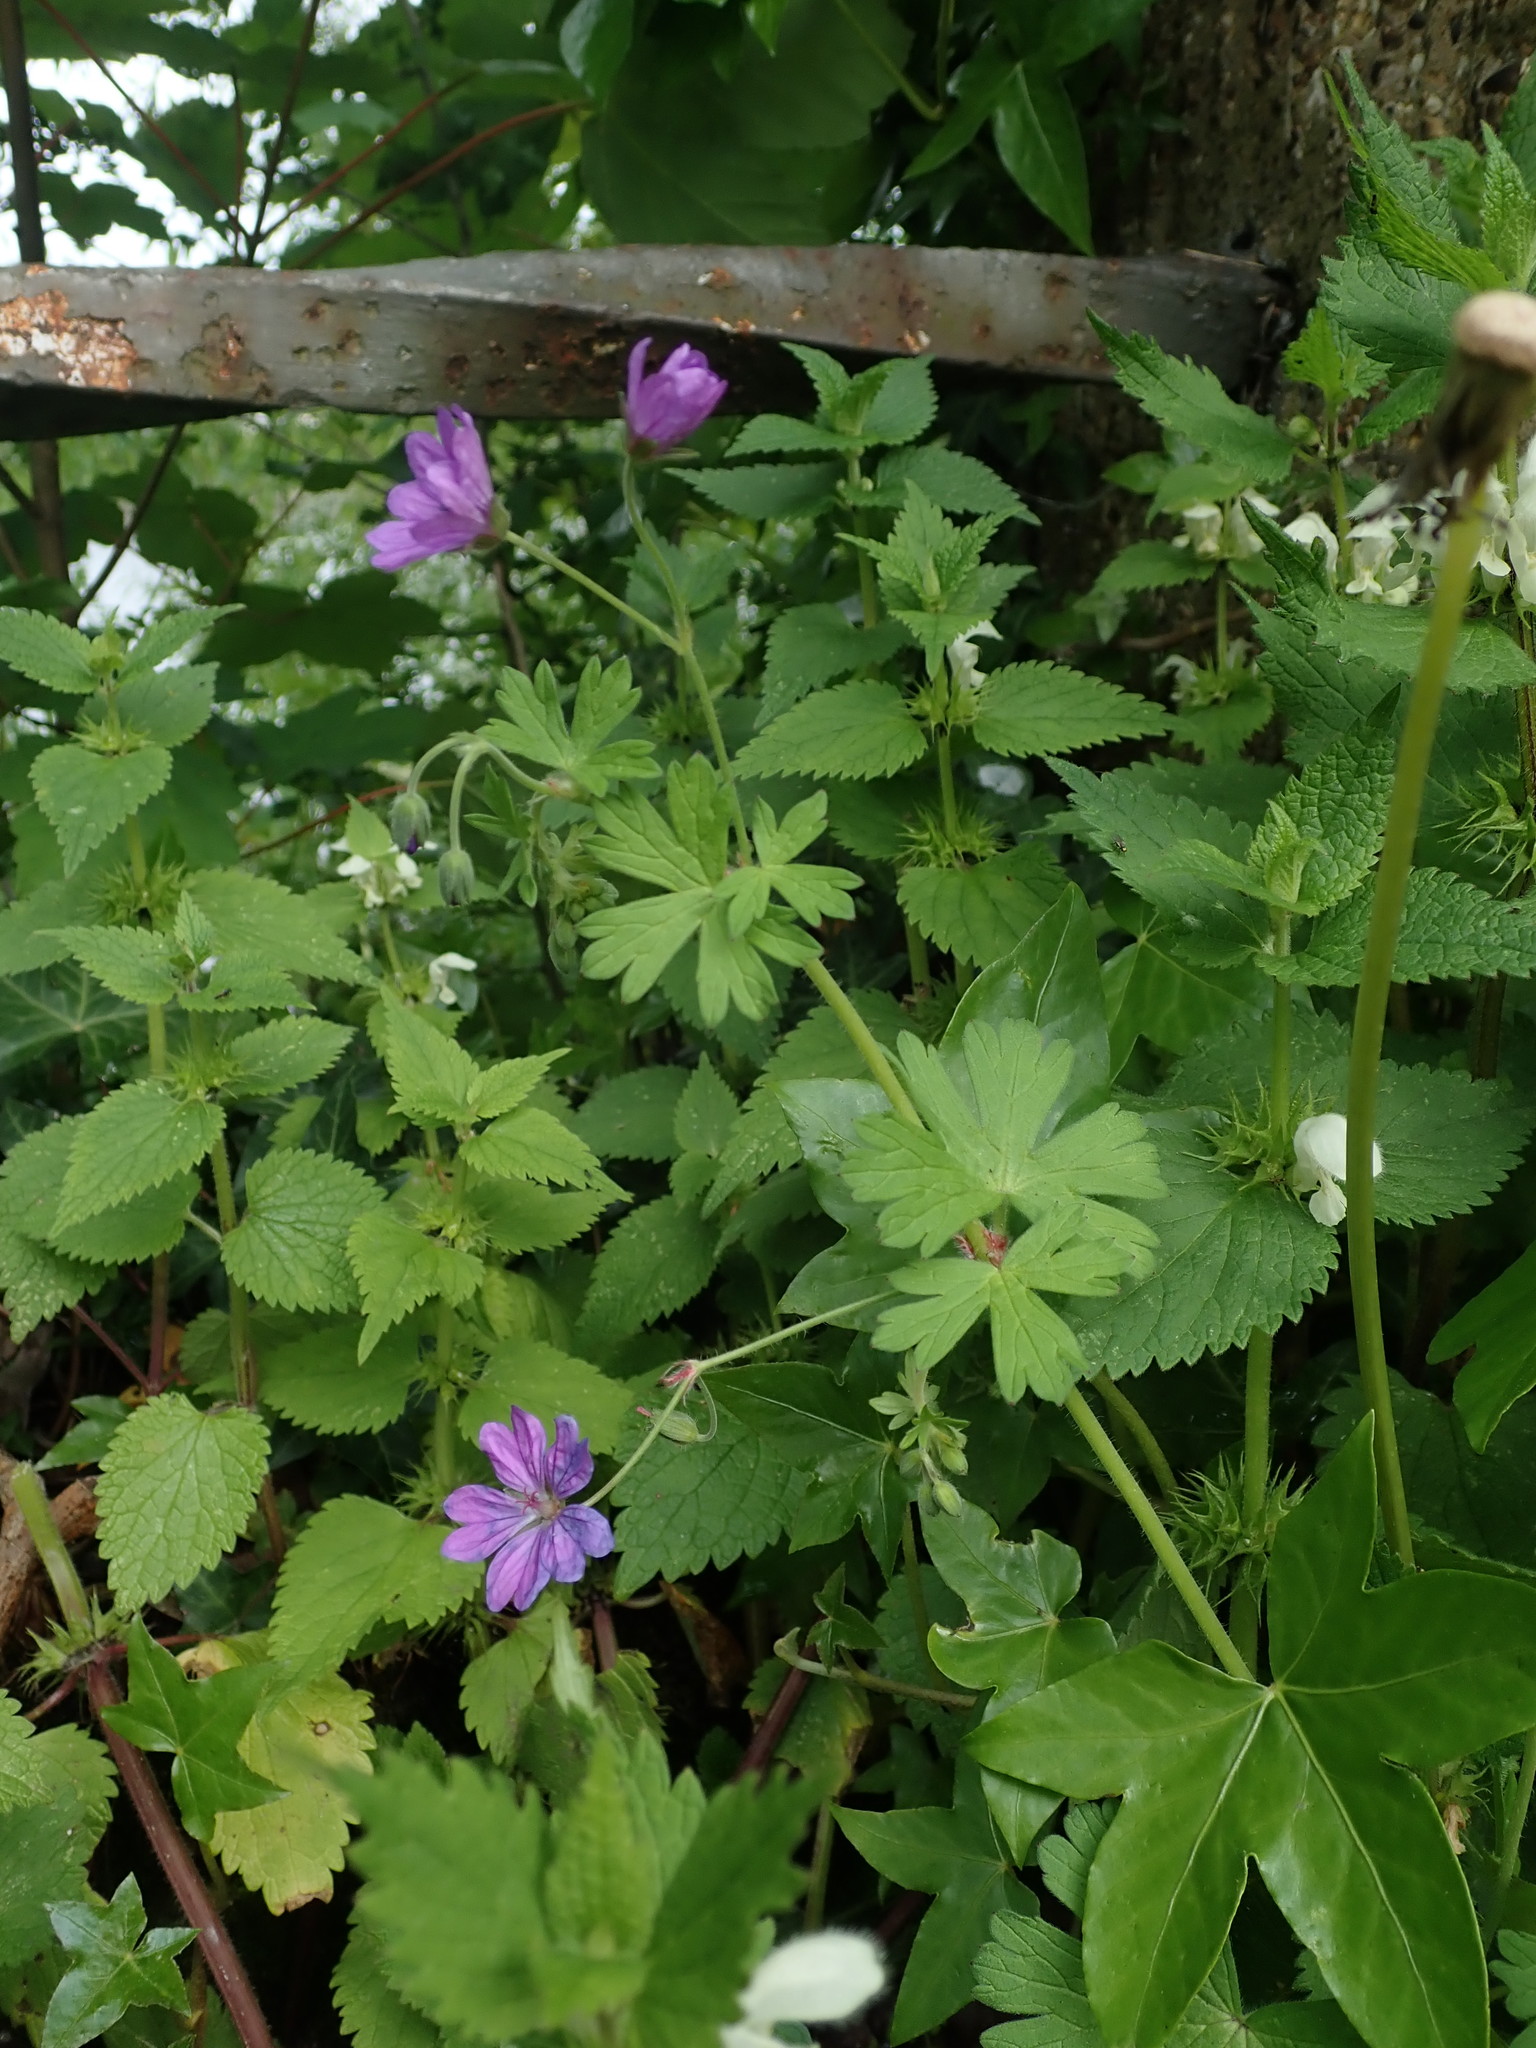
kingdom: Plantae
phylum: Tracheophyta
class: Magnoliopsida
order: Geraniales
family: Geraniaceae
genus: Geranium
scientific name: Geranium pyrenaicum
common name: Hedgerow crane's-bill
